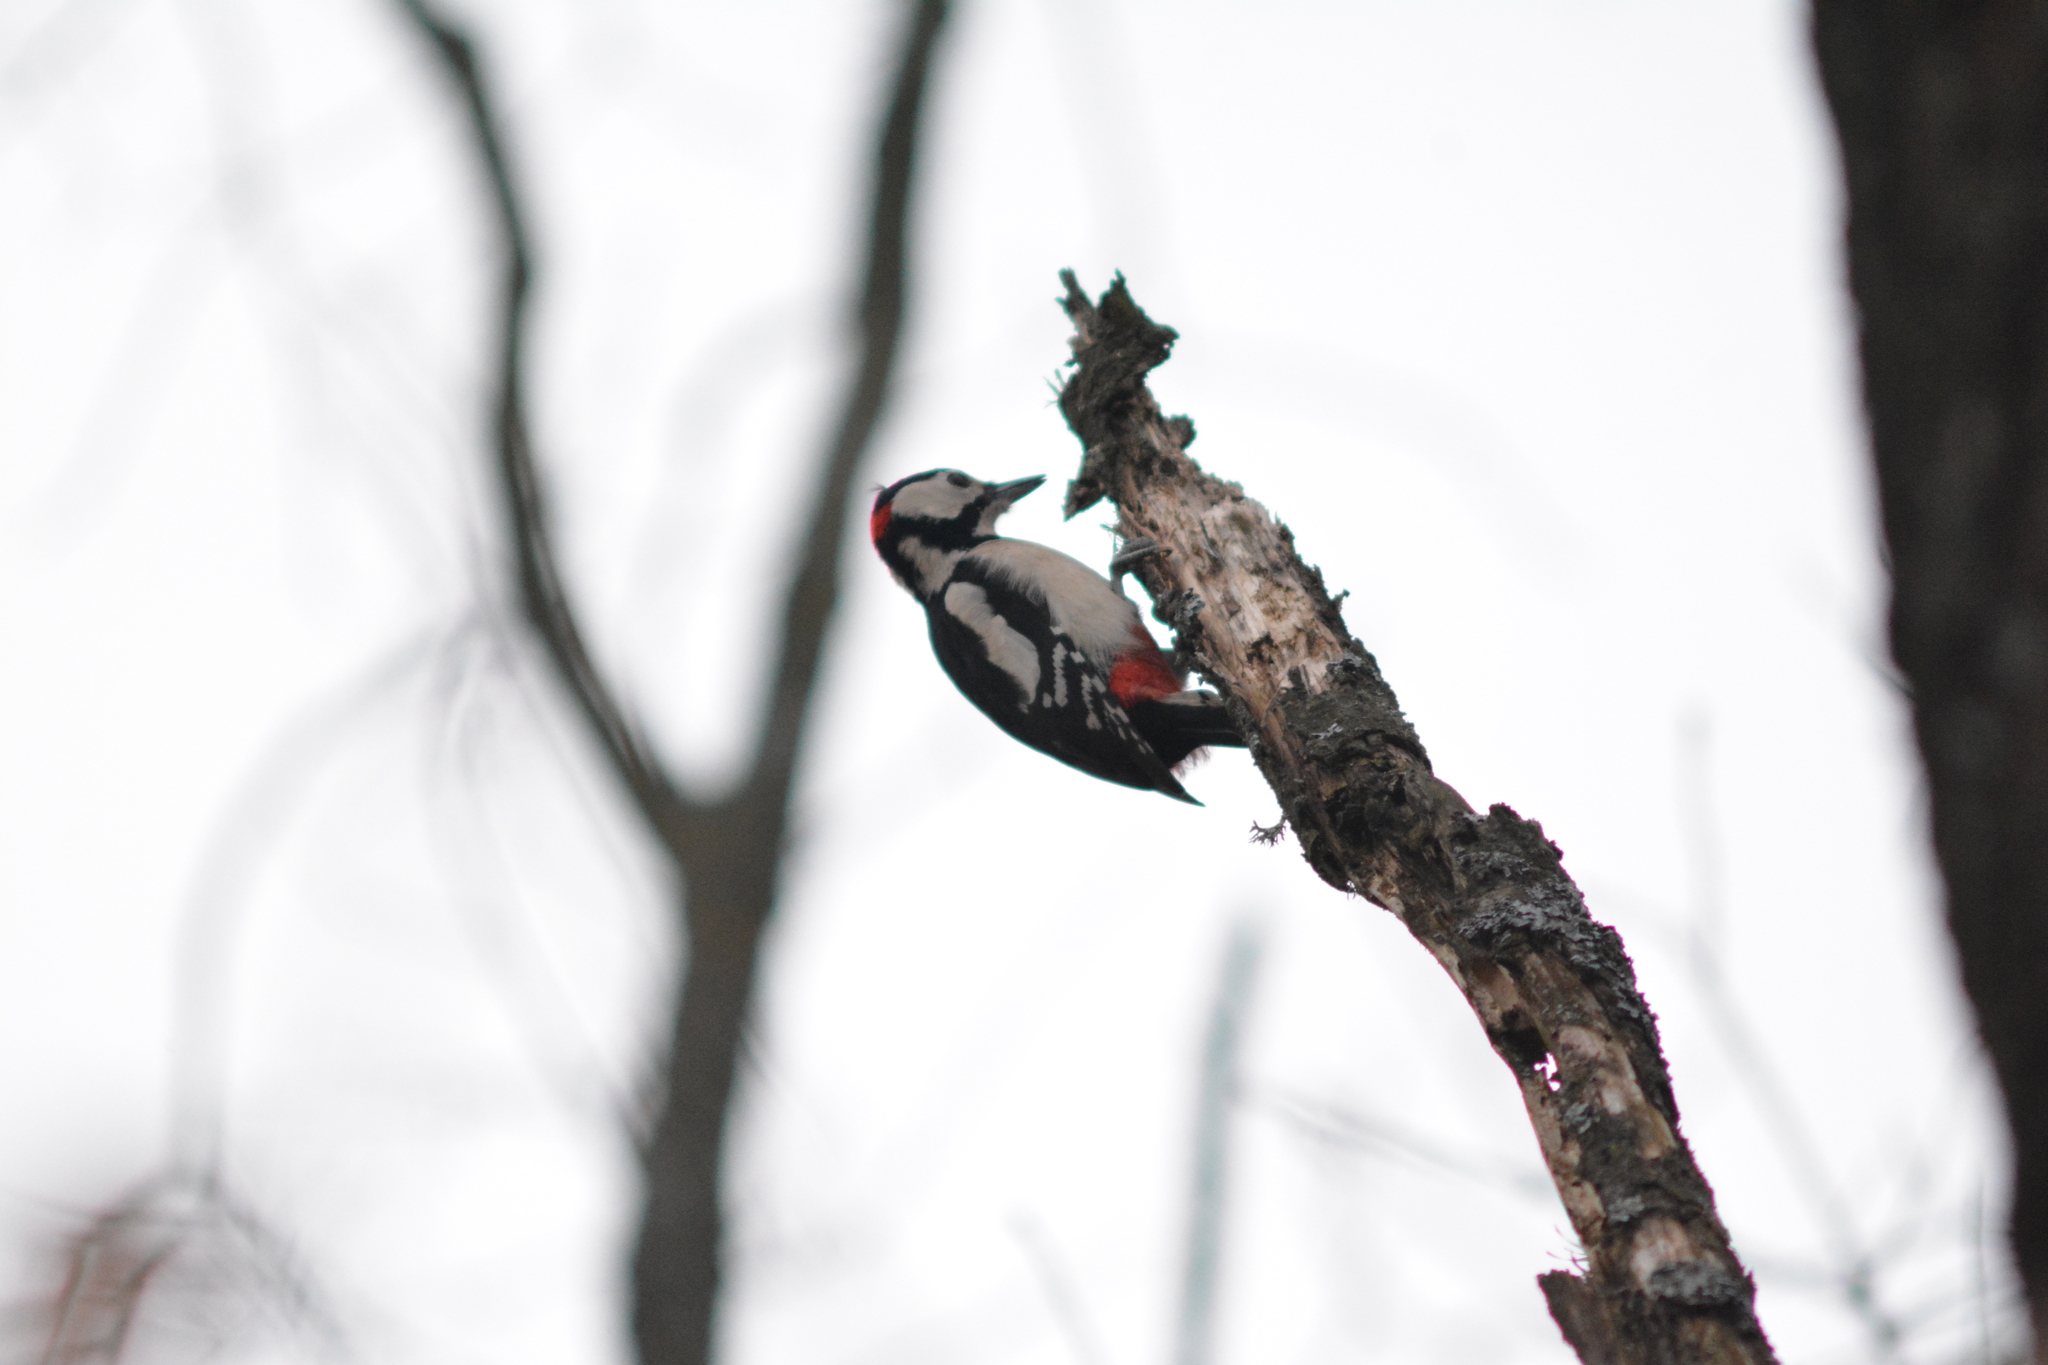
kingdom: Animalia
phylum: Chordata
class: Aves
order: Piciformes
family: Picidae
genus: Dendrocopos
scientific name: Dendrocopos major
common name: Great spotted woodpecker
